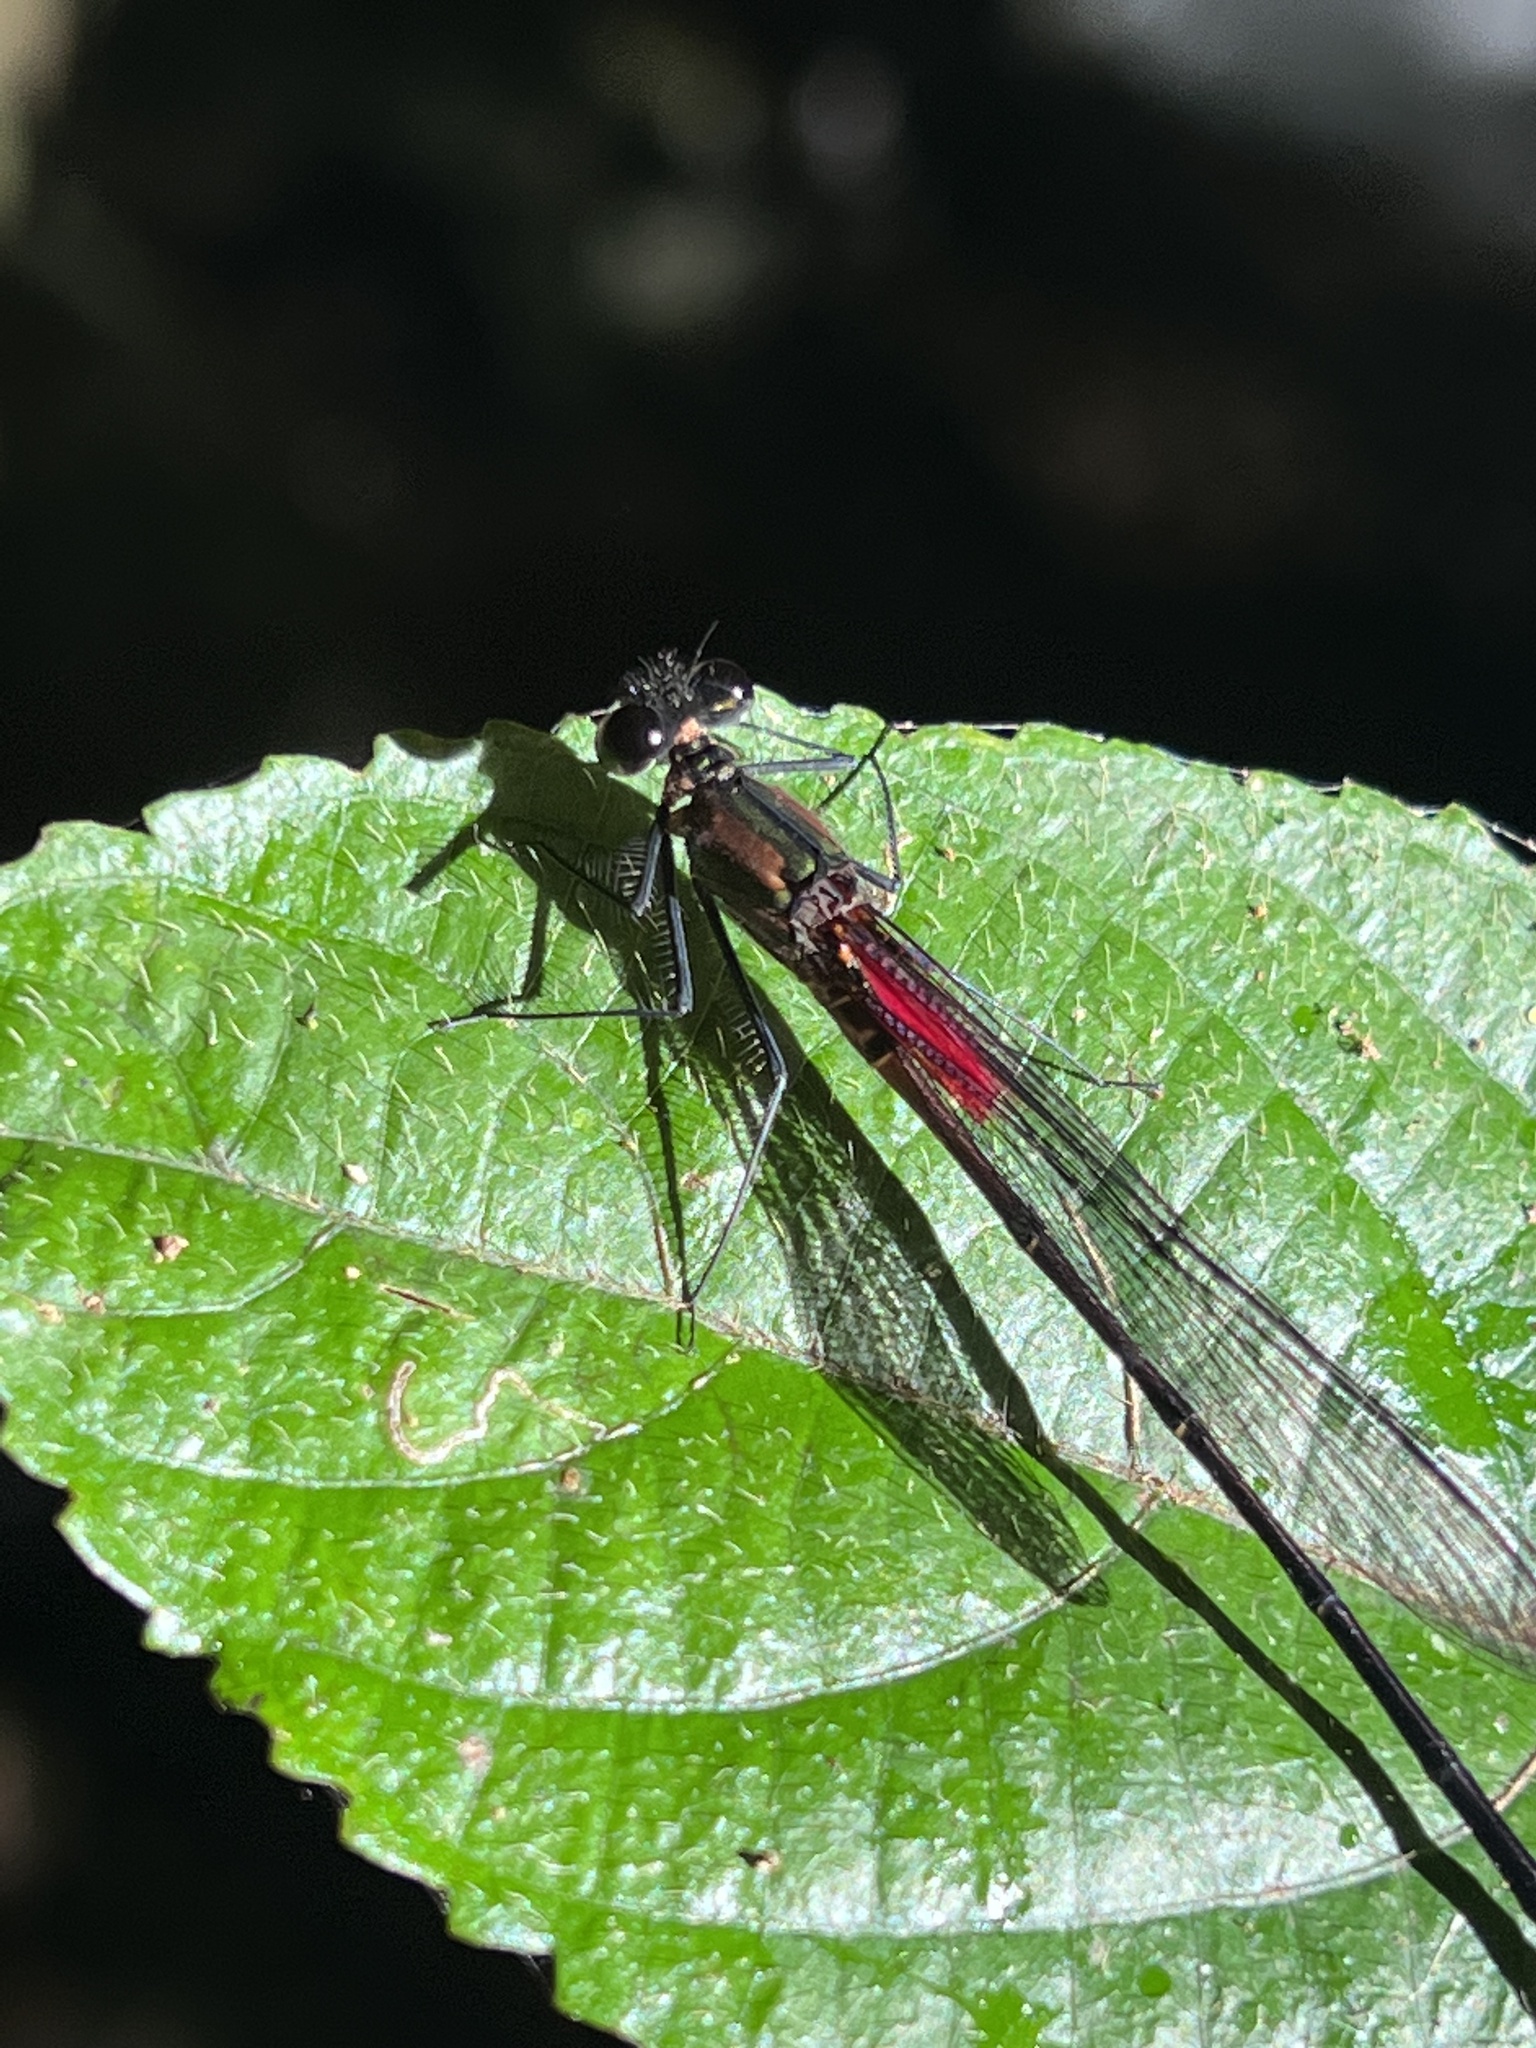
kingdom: Animalia
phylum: Arthropoda
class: Insecta
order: Odonata
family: Calopterygidae
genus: Hetaerina
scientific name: Hetaerina cruentata
